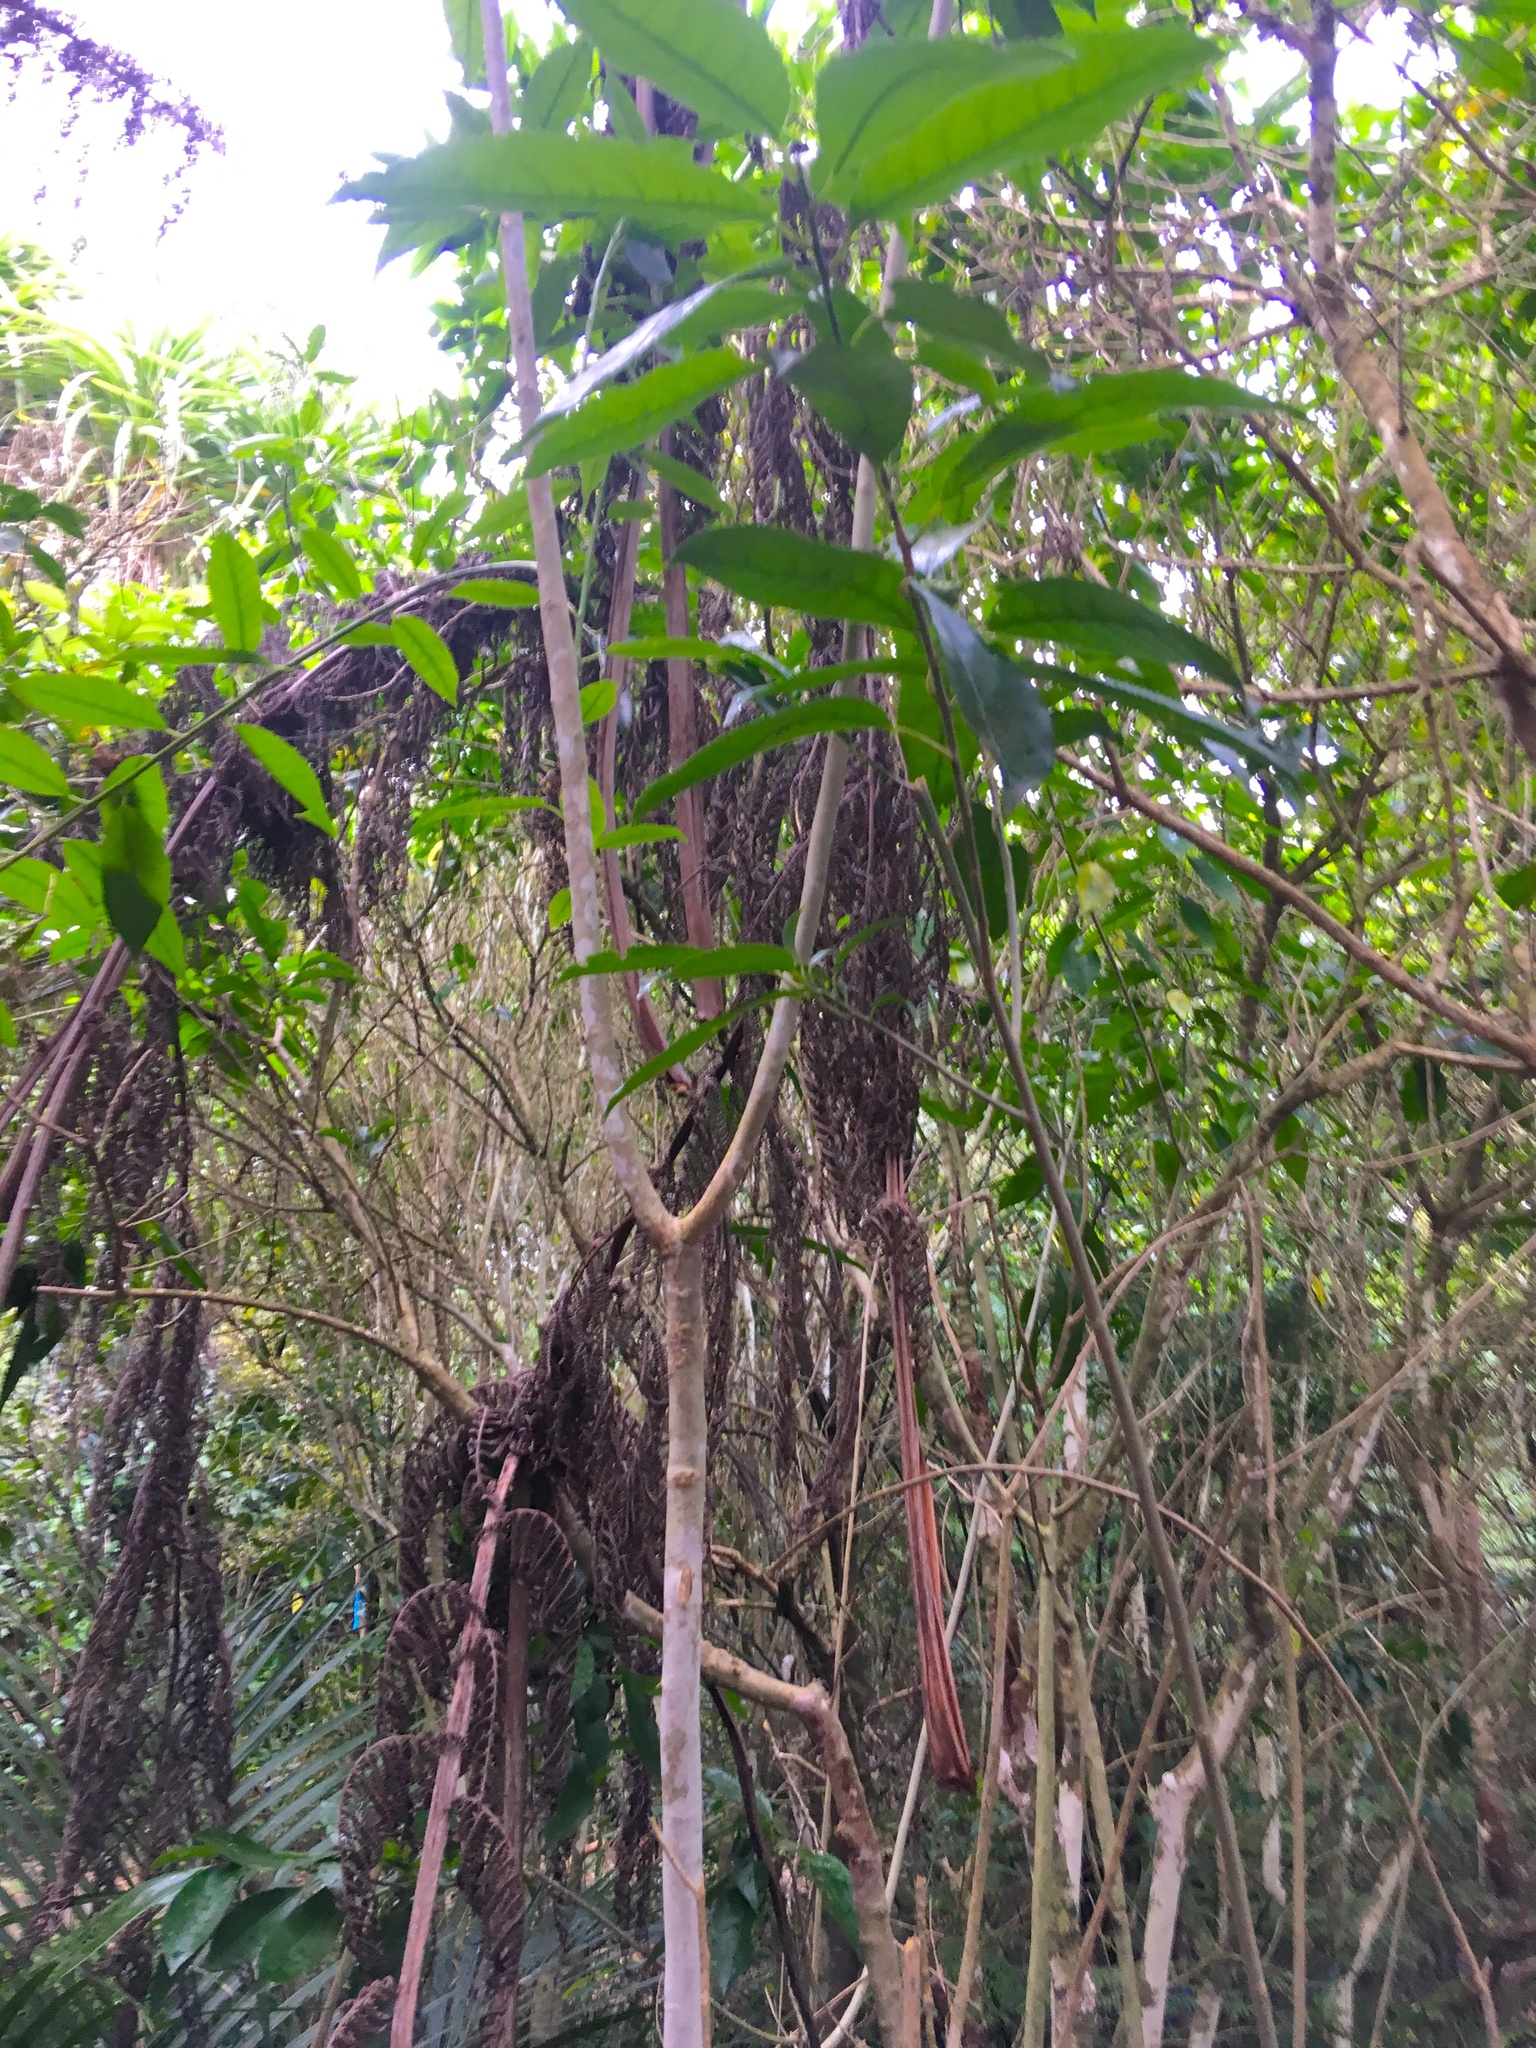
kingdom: Plantae
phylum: Tracheophyta
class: Magnoliopsida
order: Malpighiales
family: Violaceae
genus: Melicytus
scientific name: Melicytus ramiflorus
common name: Mahoe
